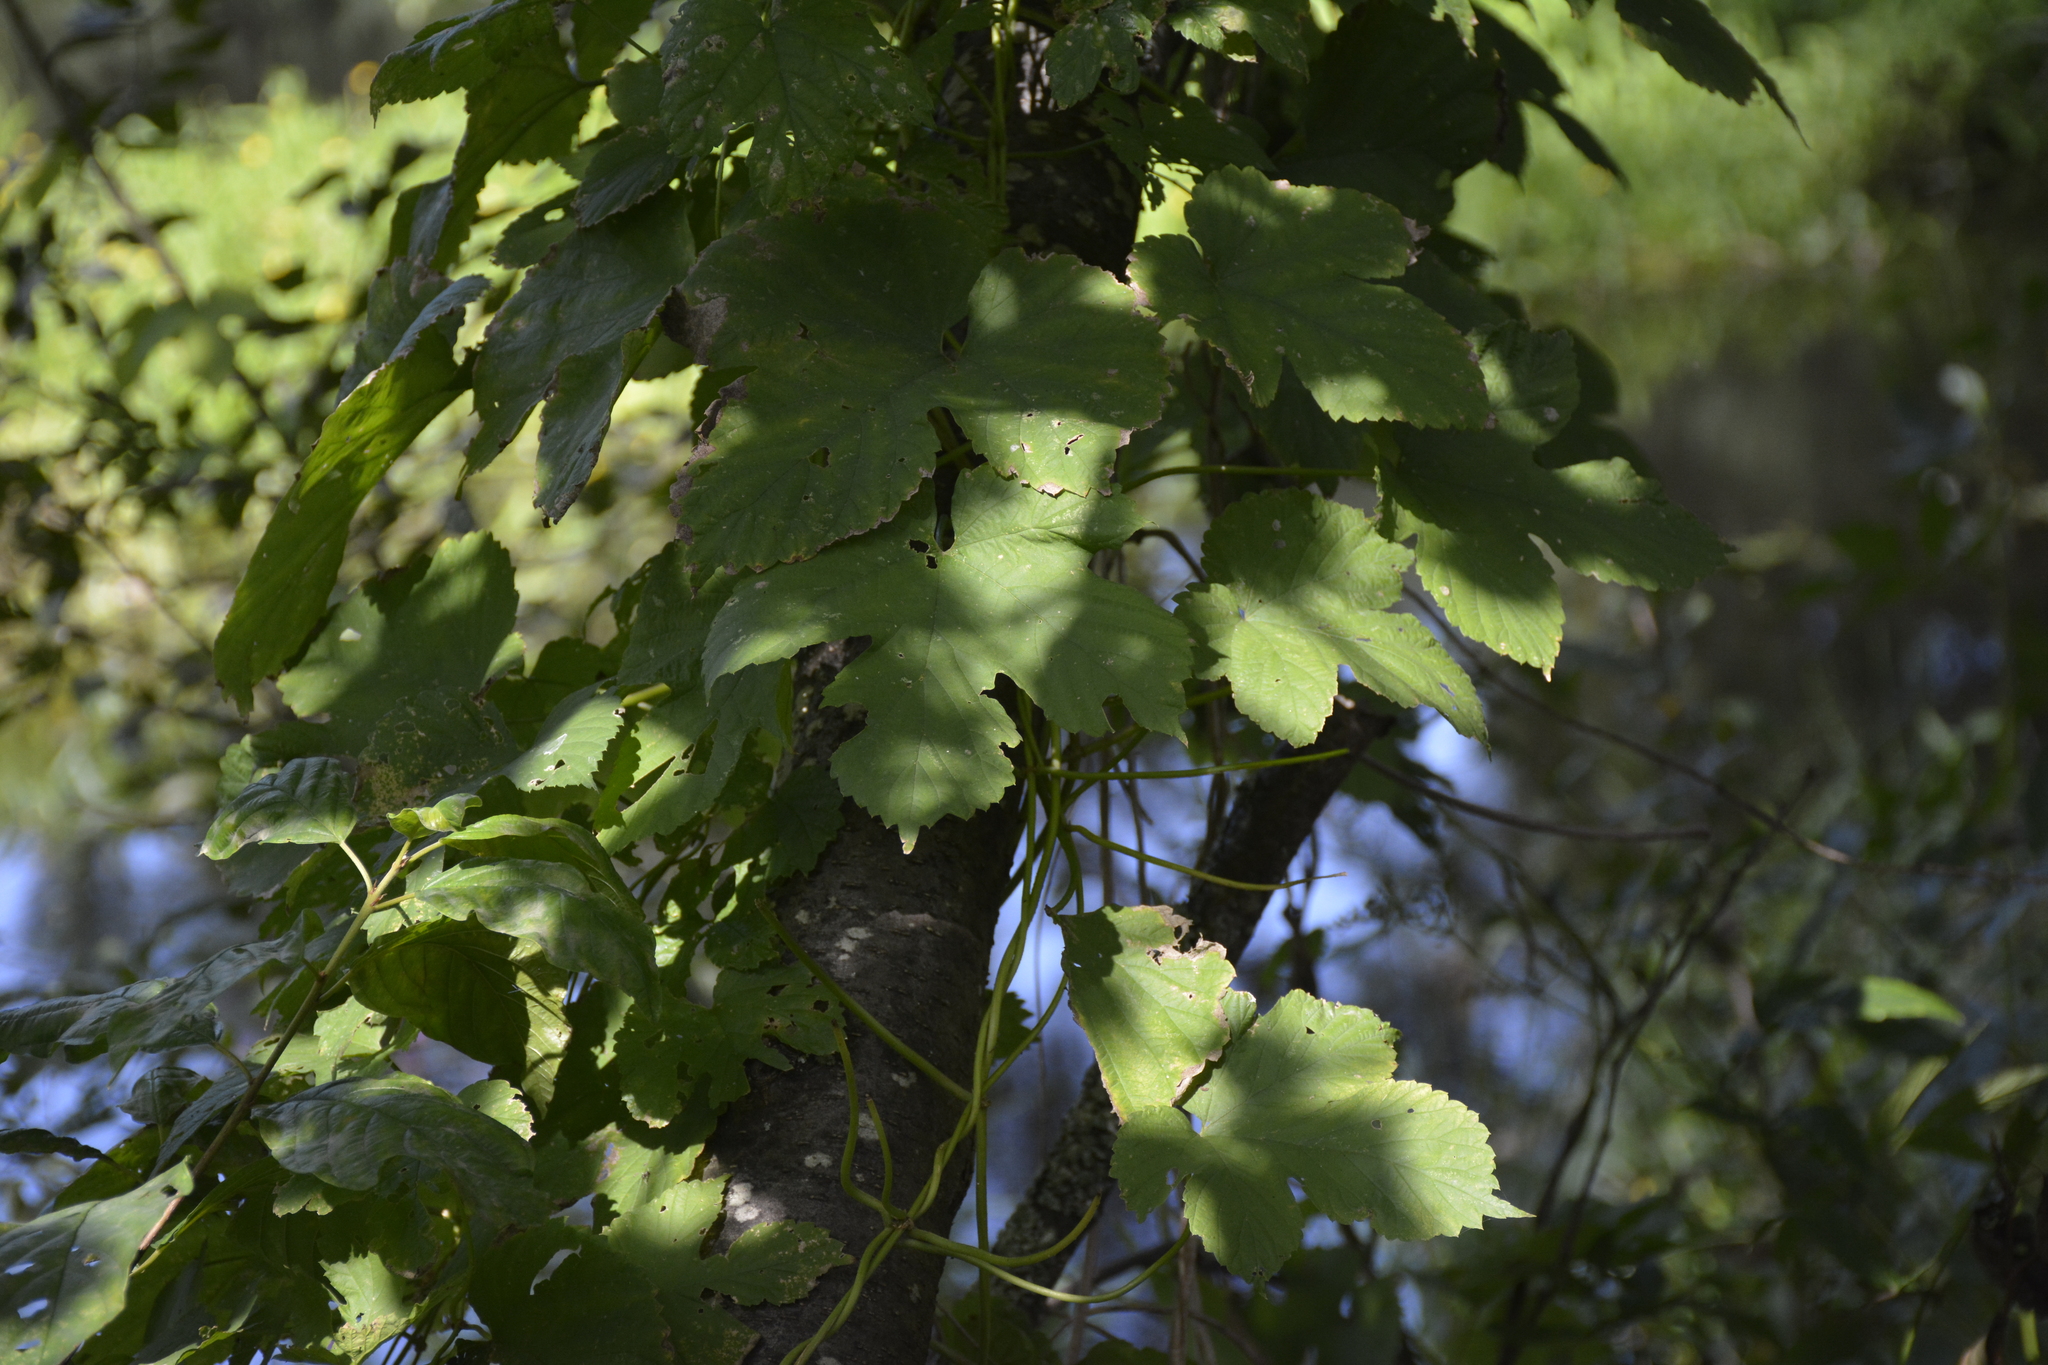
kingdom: Plantae
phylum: Tracheophyta
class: Magnoliopsida
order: Rosales
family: Cannabaceae
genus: Humulus
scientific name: Humulus lupulus
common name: Hop
